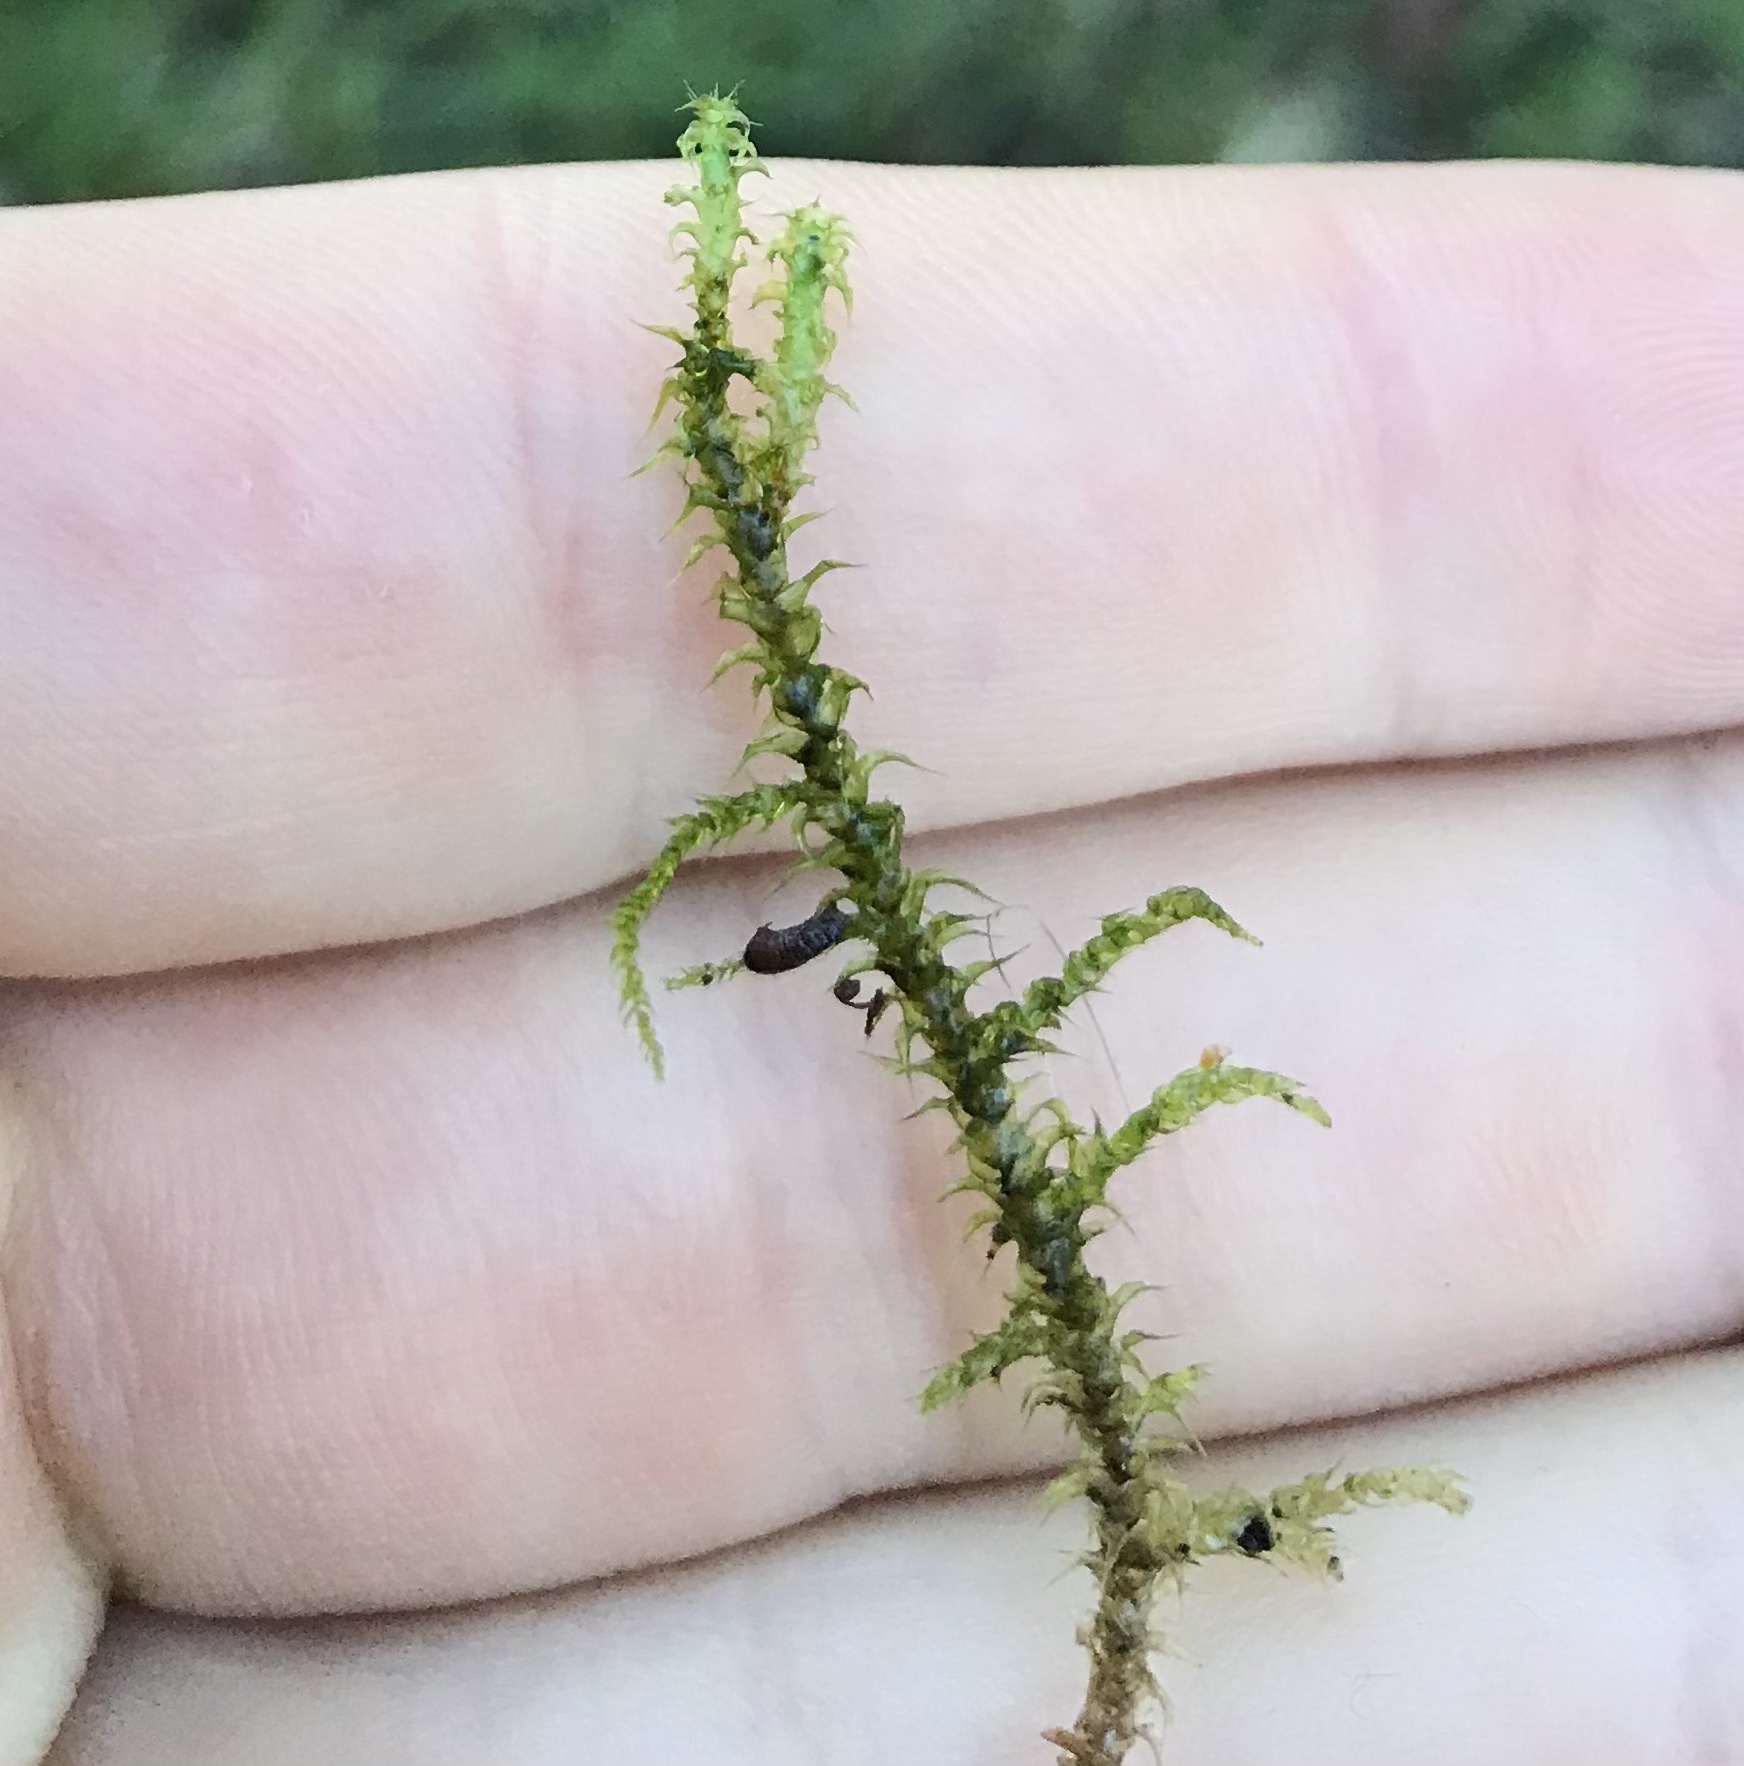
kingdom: Plantae
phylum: Bryophyta
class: Bryopsida
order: Hypnales
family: Hylocomiaceae
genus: Rhytidiadelphus
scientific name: Rhytidiadelphus squarrosus
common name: Springy turf-moss
